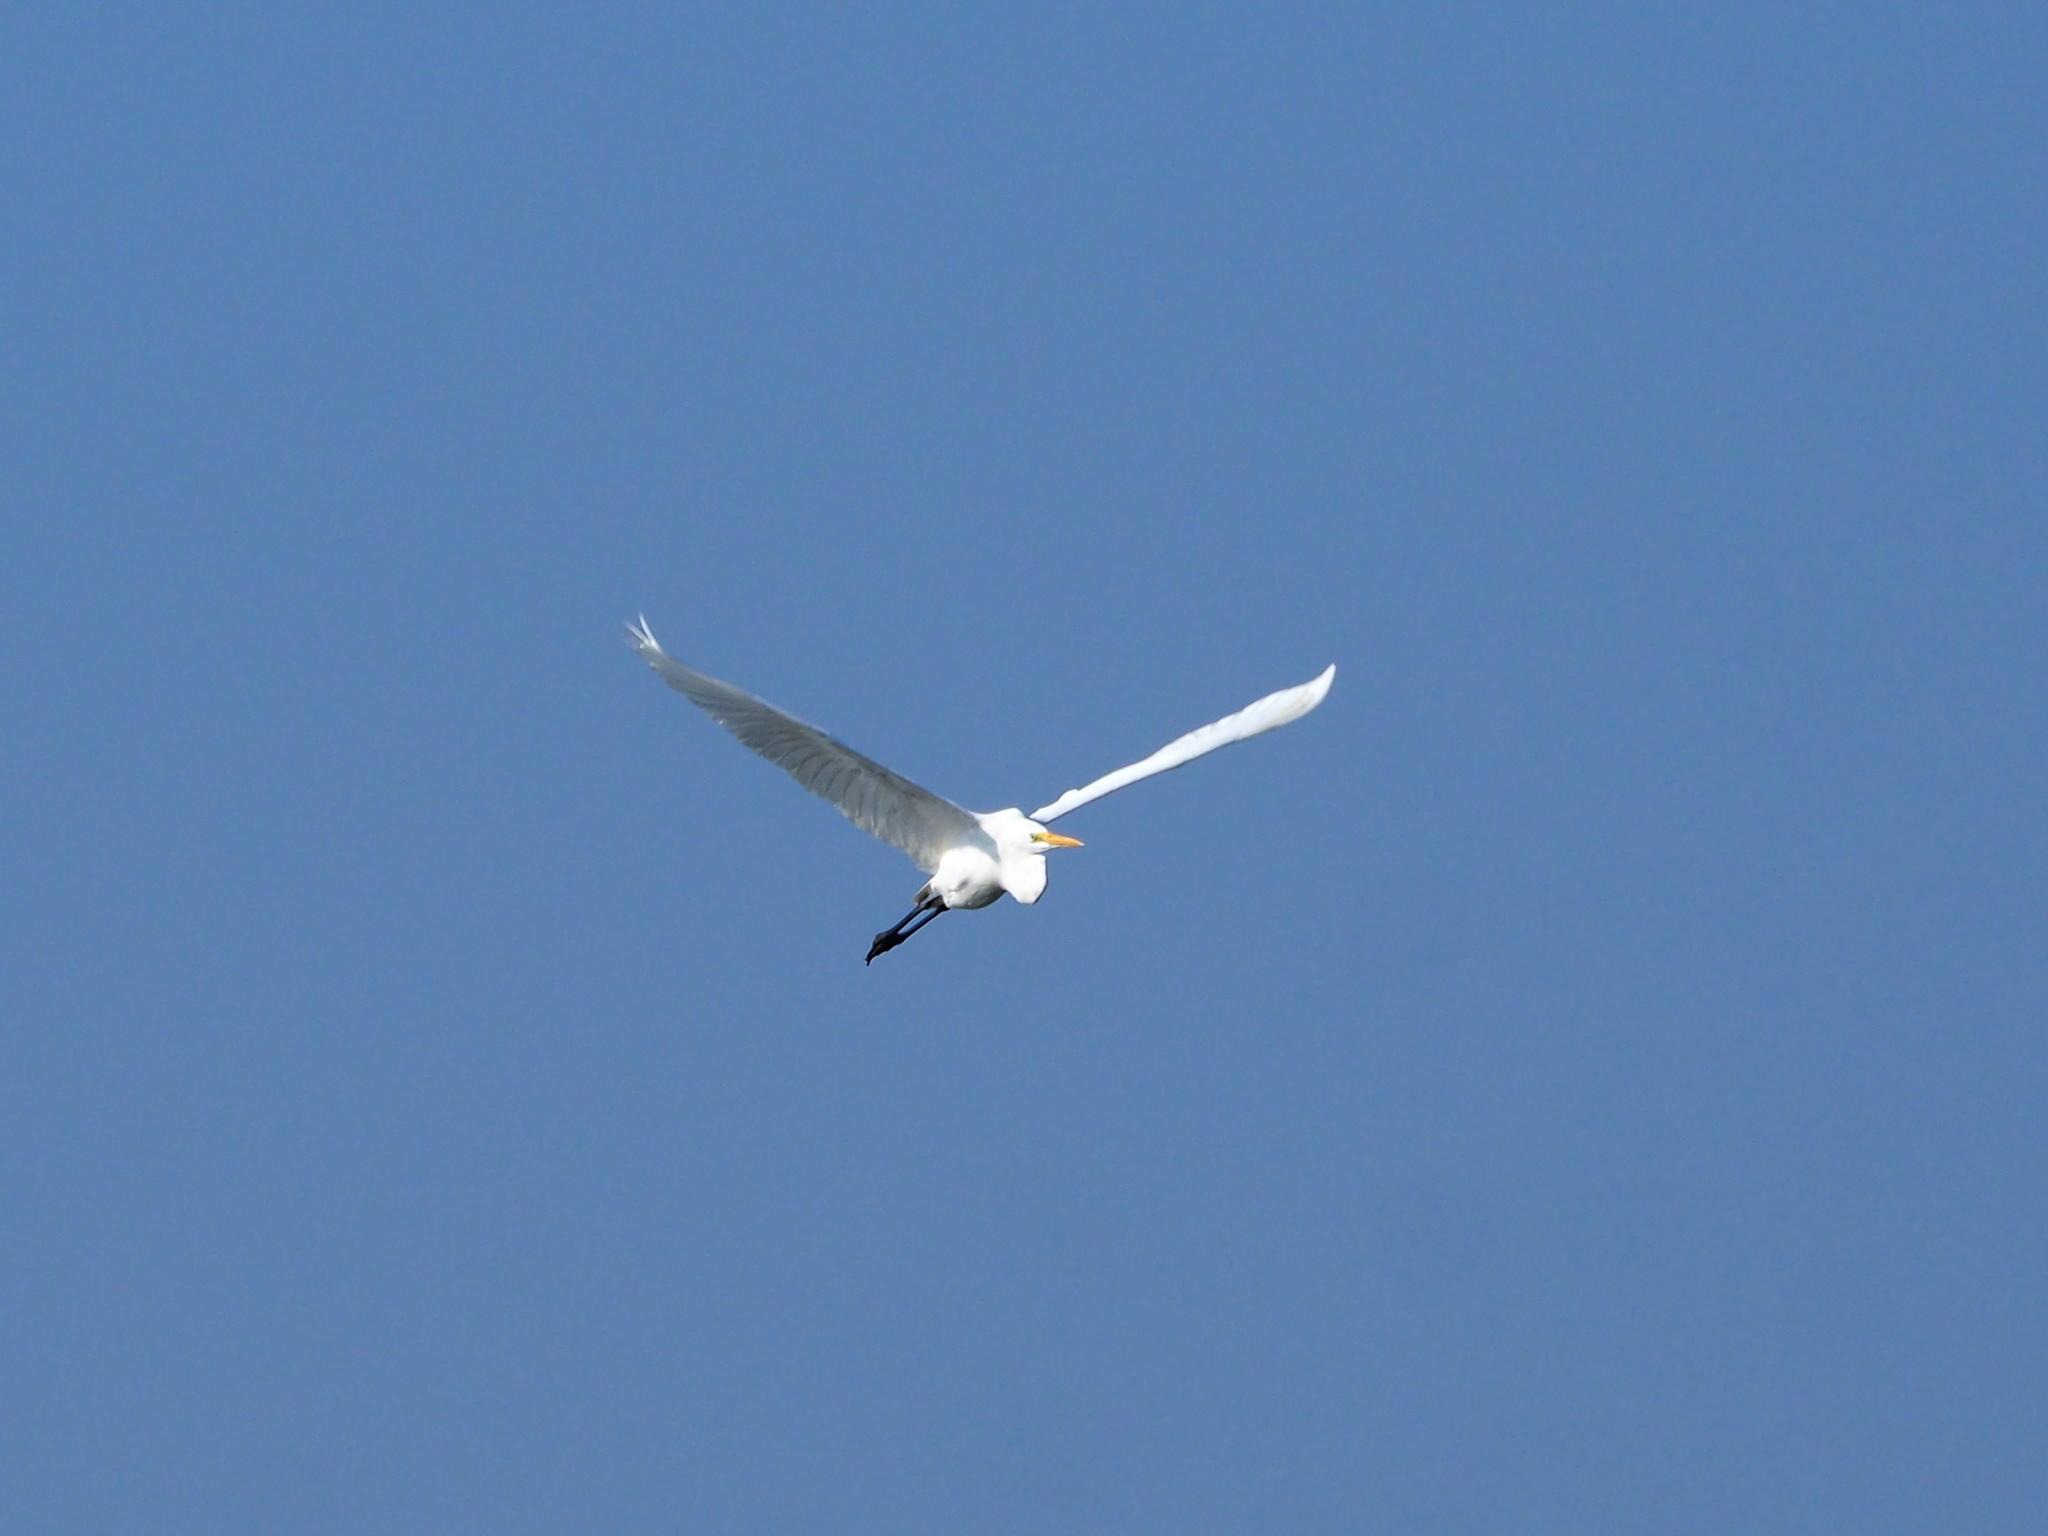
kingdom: Animalia
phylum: Chordata
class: Aves
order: Pelecaniformes
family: Ardeidae
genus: Ardea
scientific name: Ardea alba
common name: Great egret
